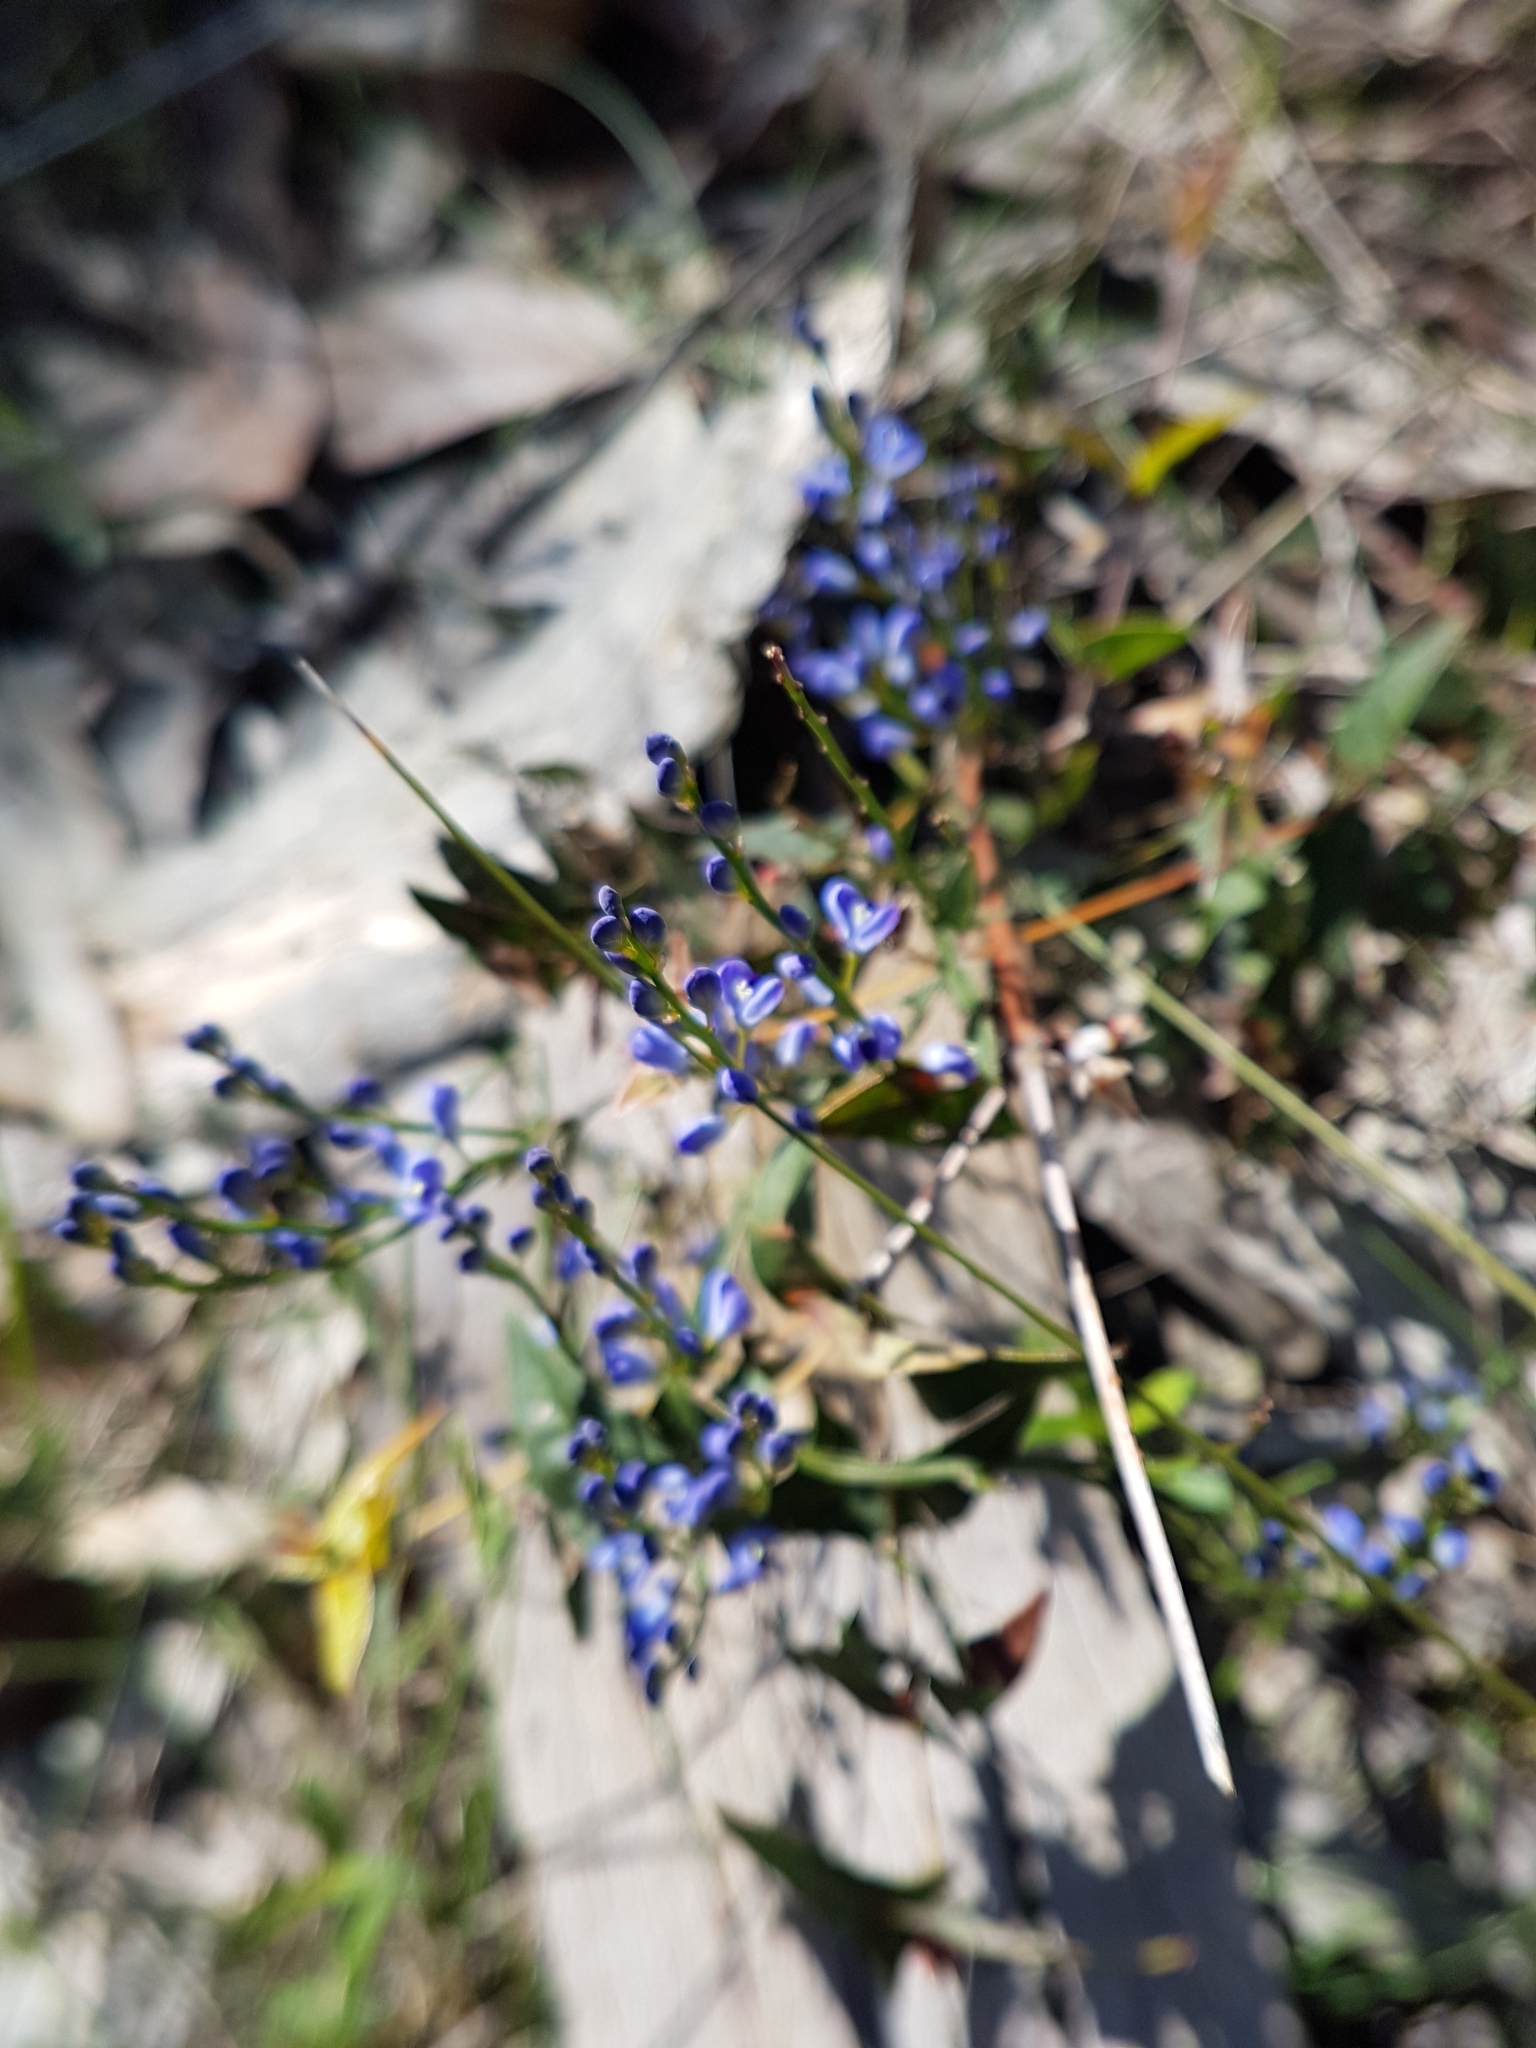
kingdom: Plantae
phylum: Tracheophyta
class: Magnoliopsida
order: Fabales
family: Polygalaceae
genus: Comesperma
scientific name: Comesperma volubile
